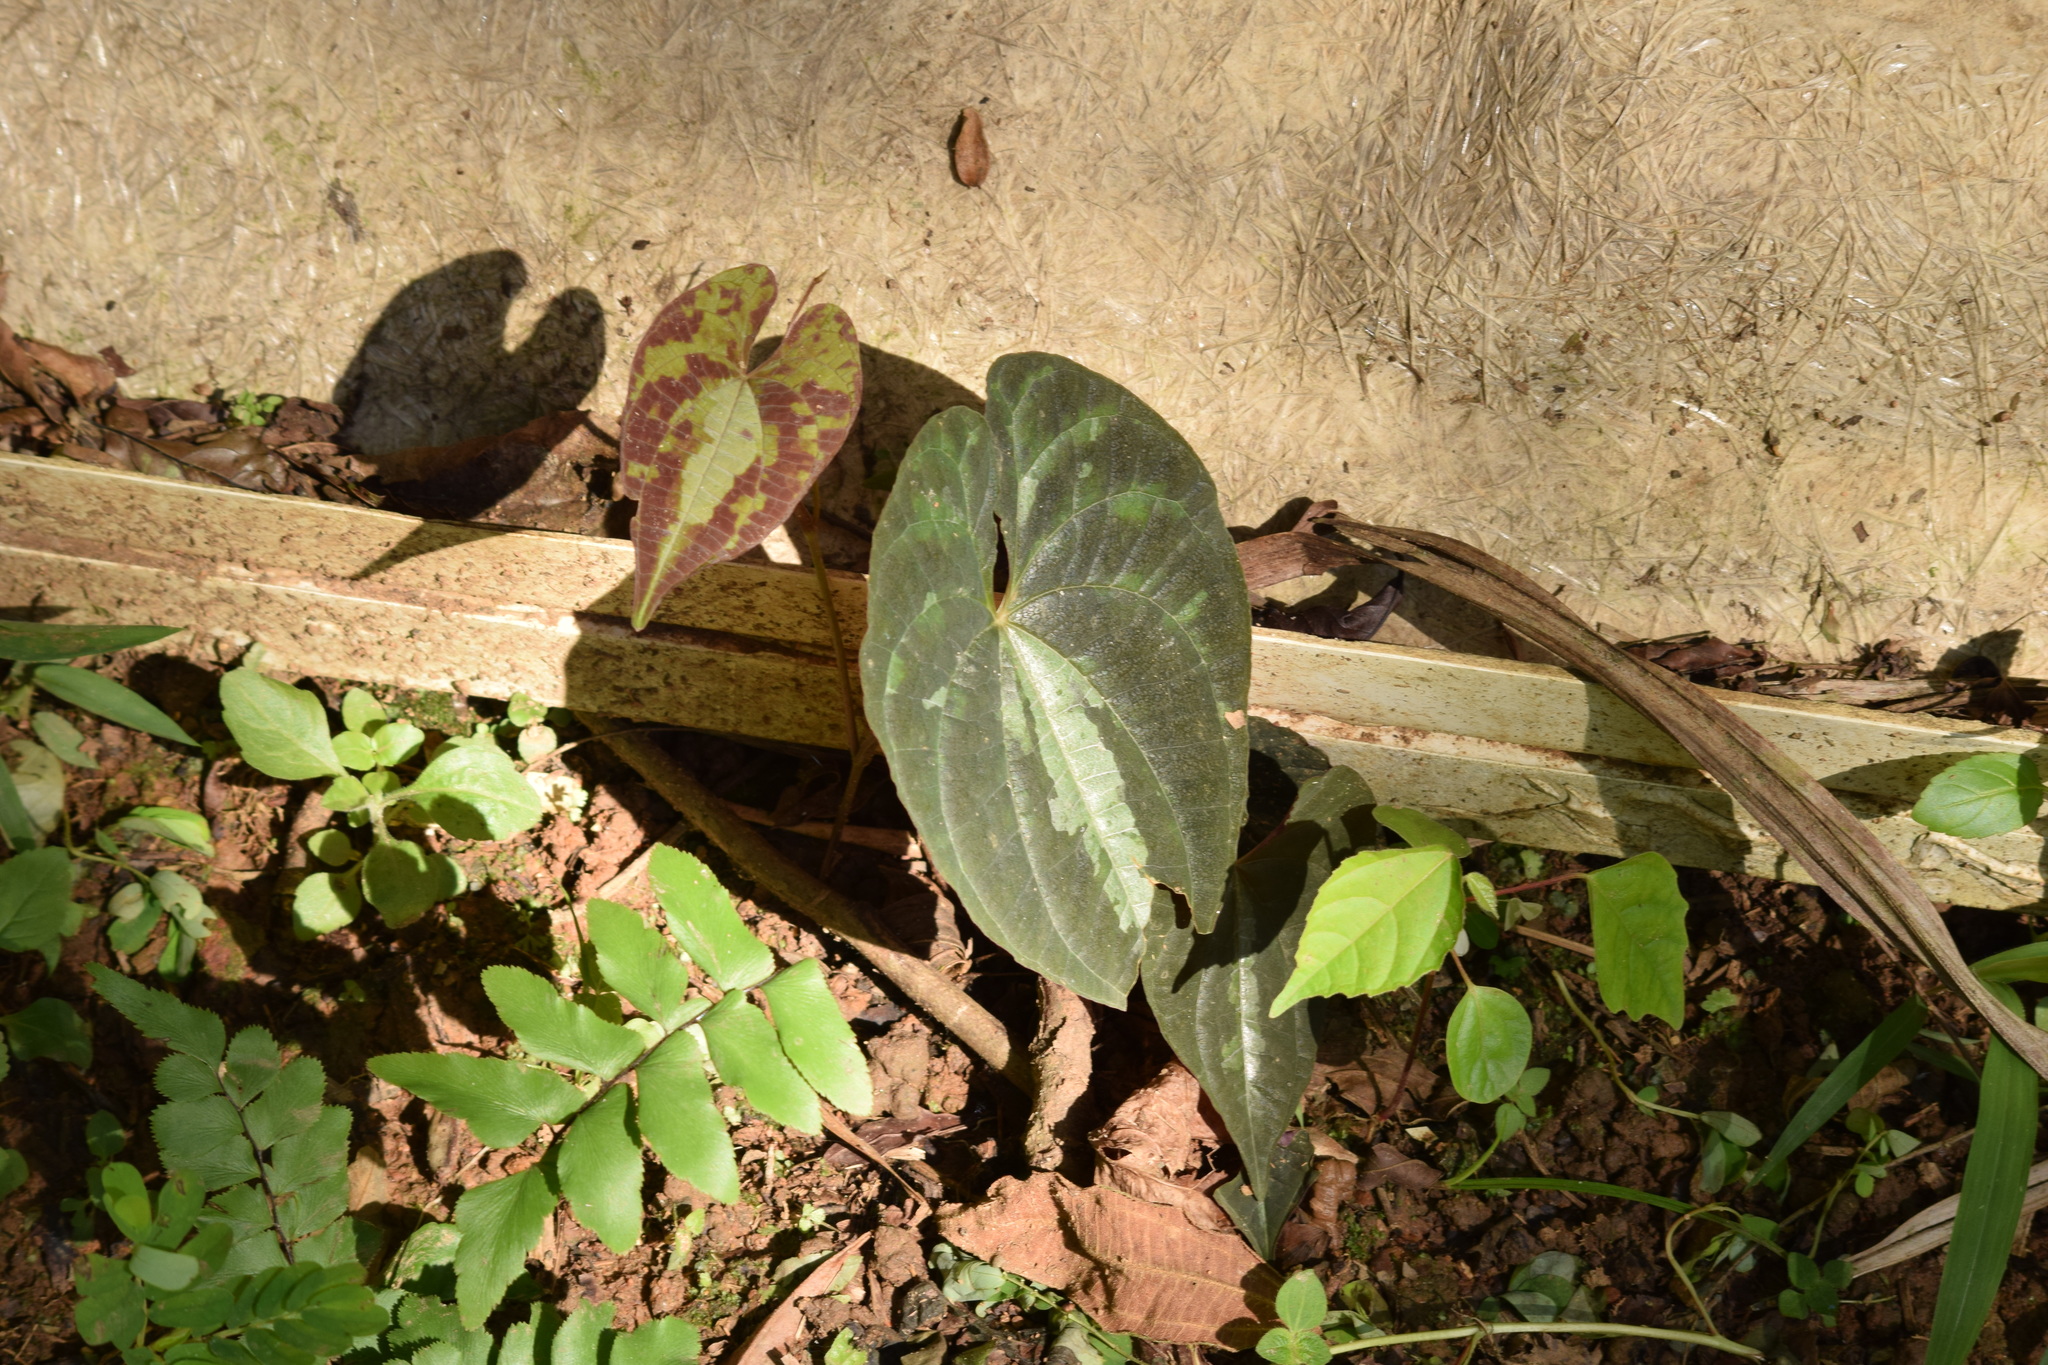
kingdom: Plantae
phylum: Tracheophyta
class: Liliopsida
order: Dioscoreales
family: Dioscoreaceae
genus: Dioscorea
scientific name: Dioscorea dodecaneura
